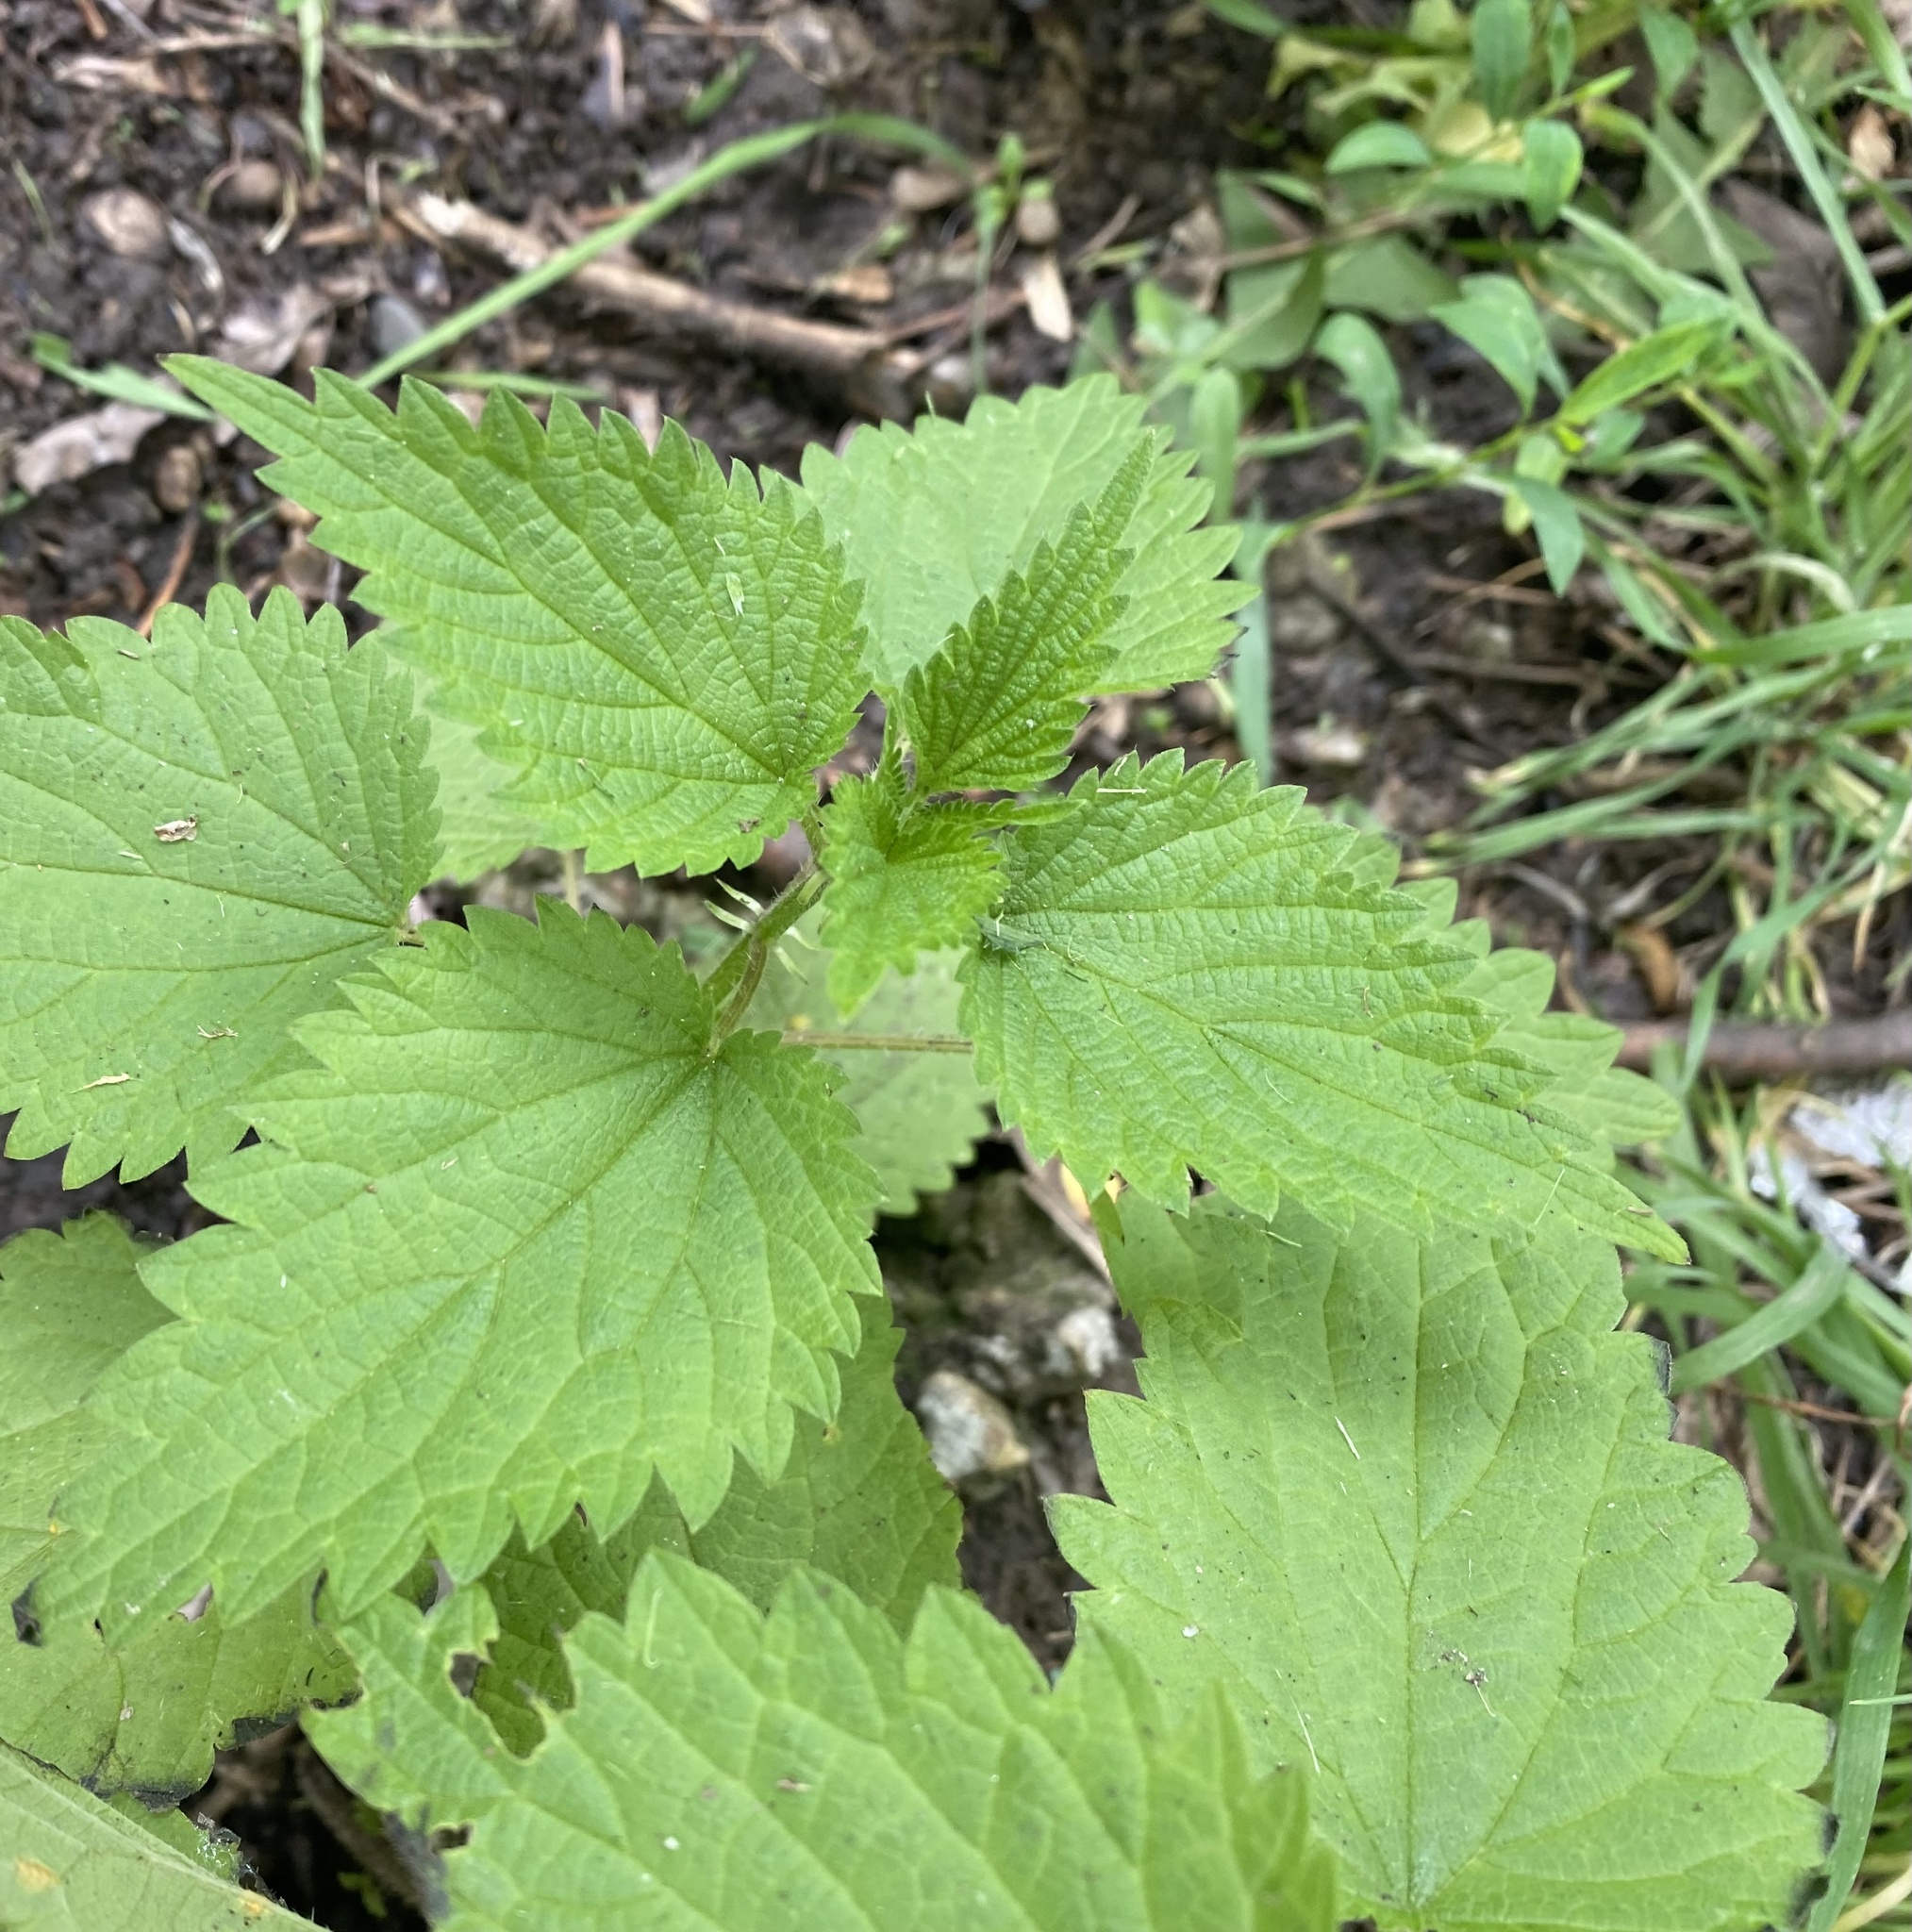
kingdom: Plantae
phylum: Tracheophyta
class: Magnoliopsida
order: Rosales
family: Urticaceae
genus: Urtica
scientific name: Urtica dioica
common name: Common nettle
